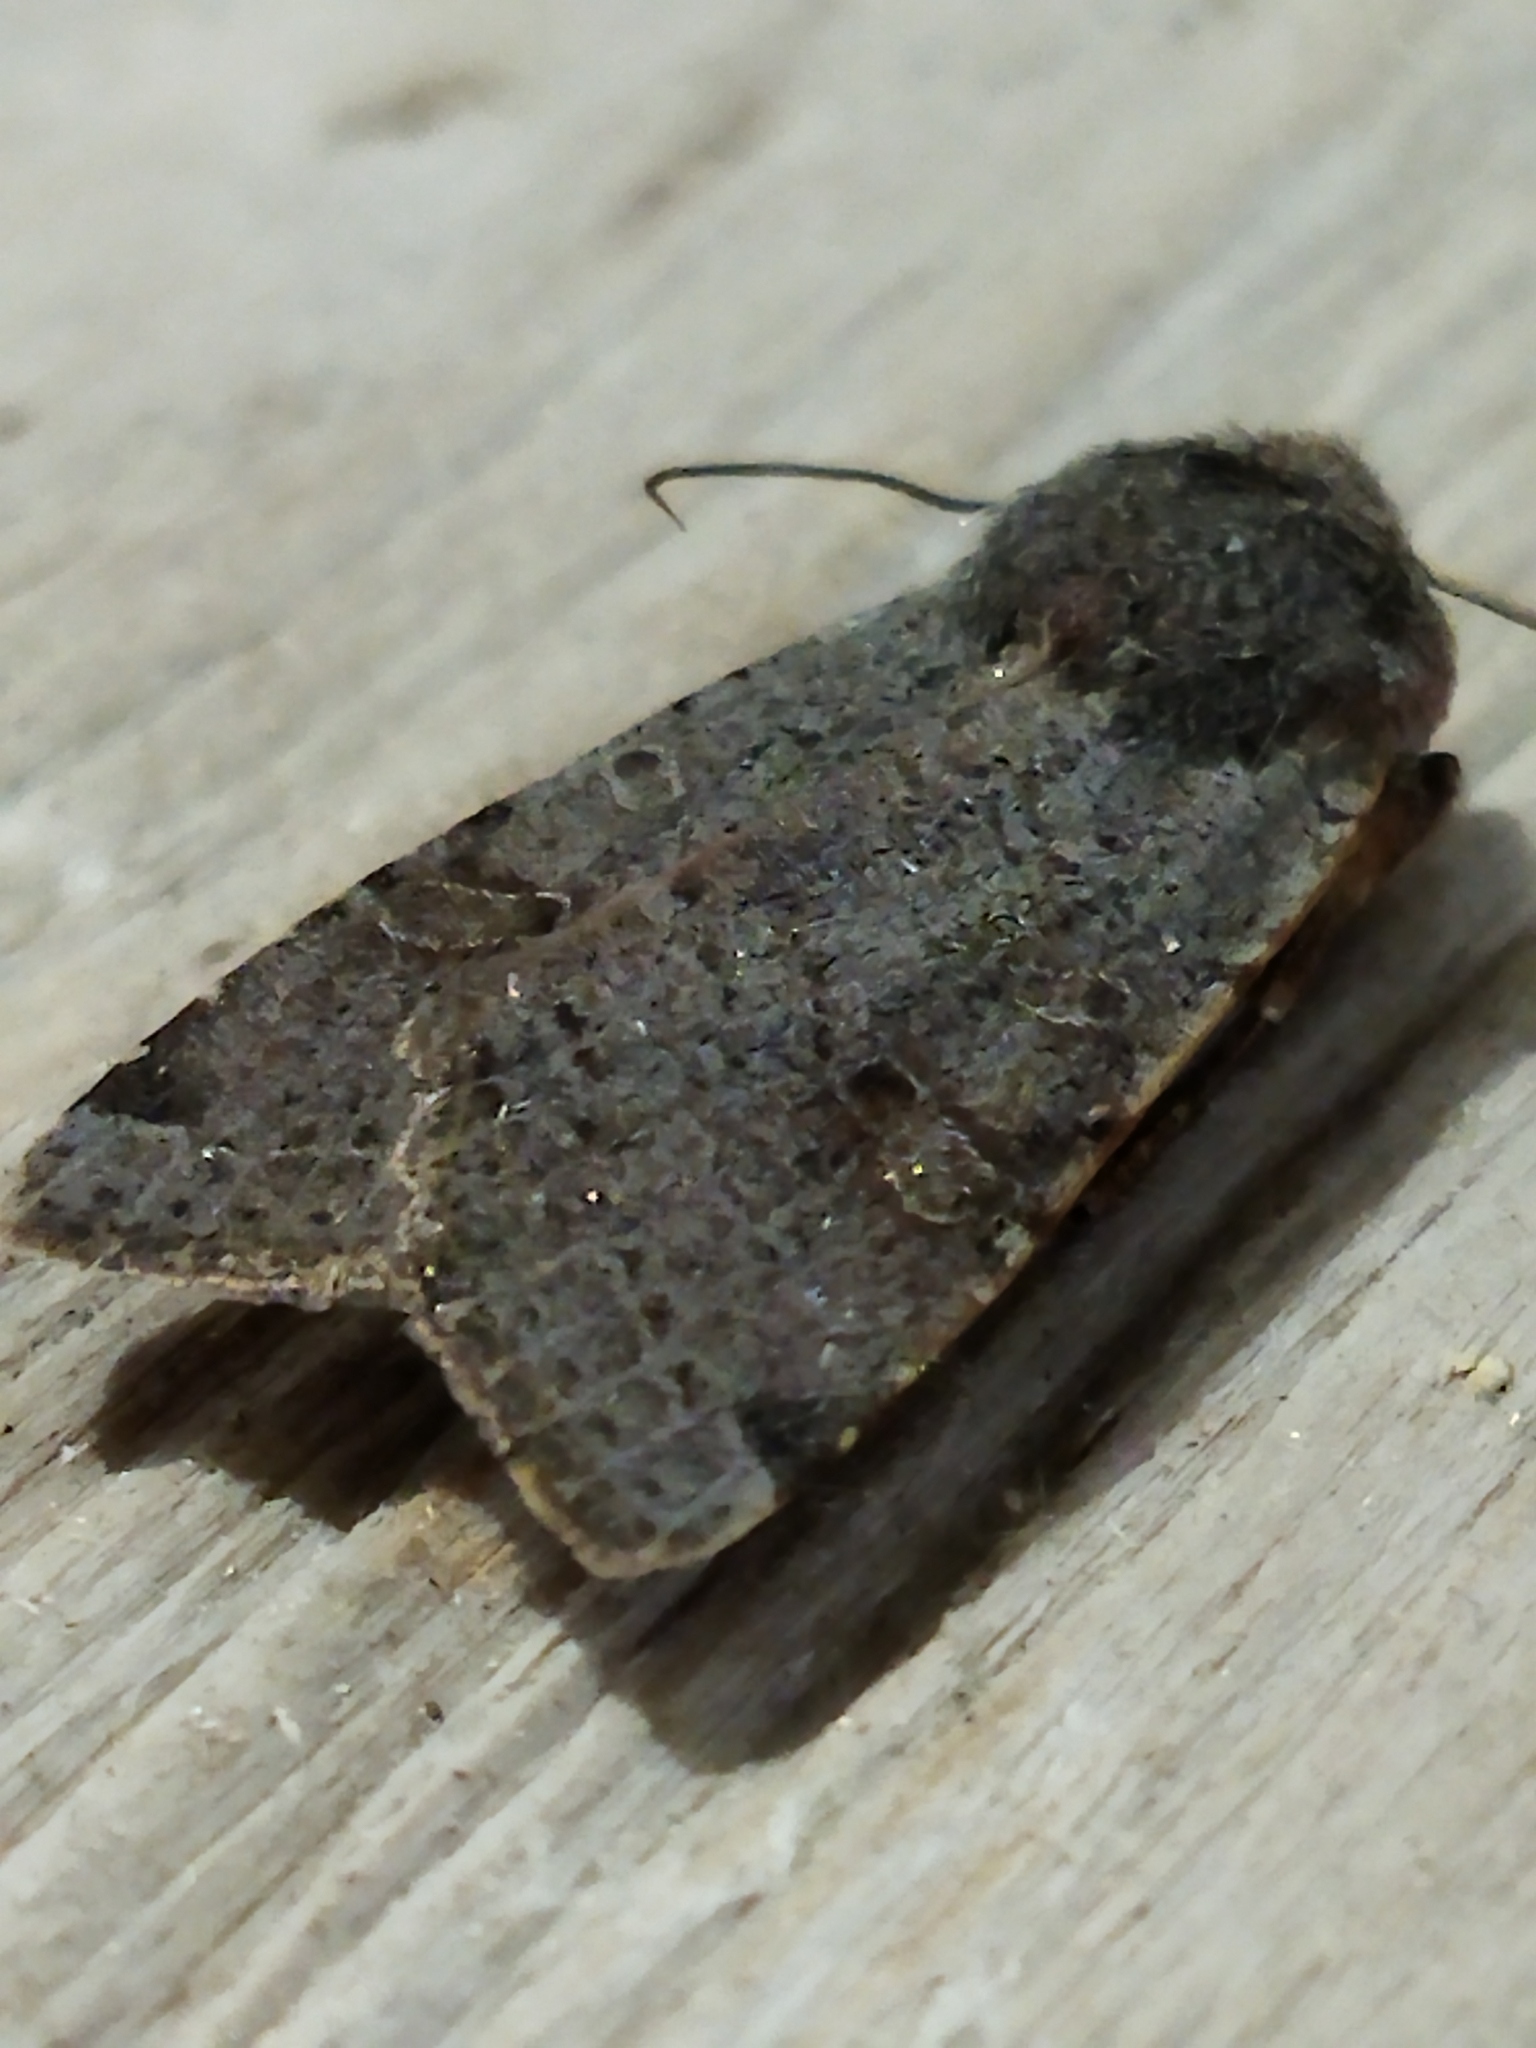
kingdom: Animalia
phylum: Arthropoda
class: Insecta
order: Lepidoptera
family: Noctuidae
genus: Agrochola
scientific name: Agrochola lychnidis
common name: Beaded chestnut
